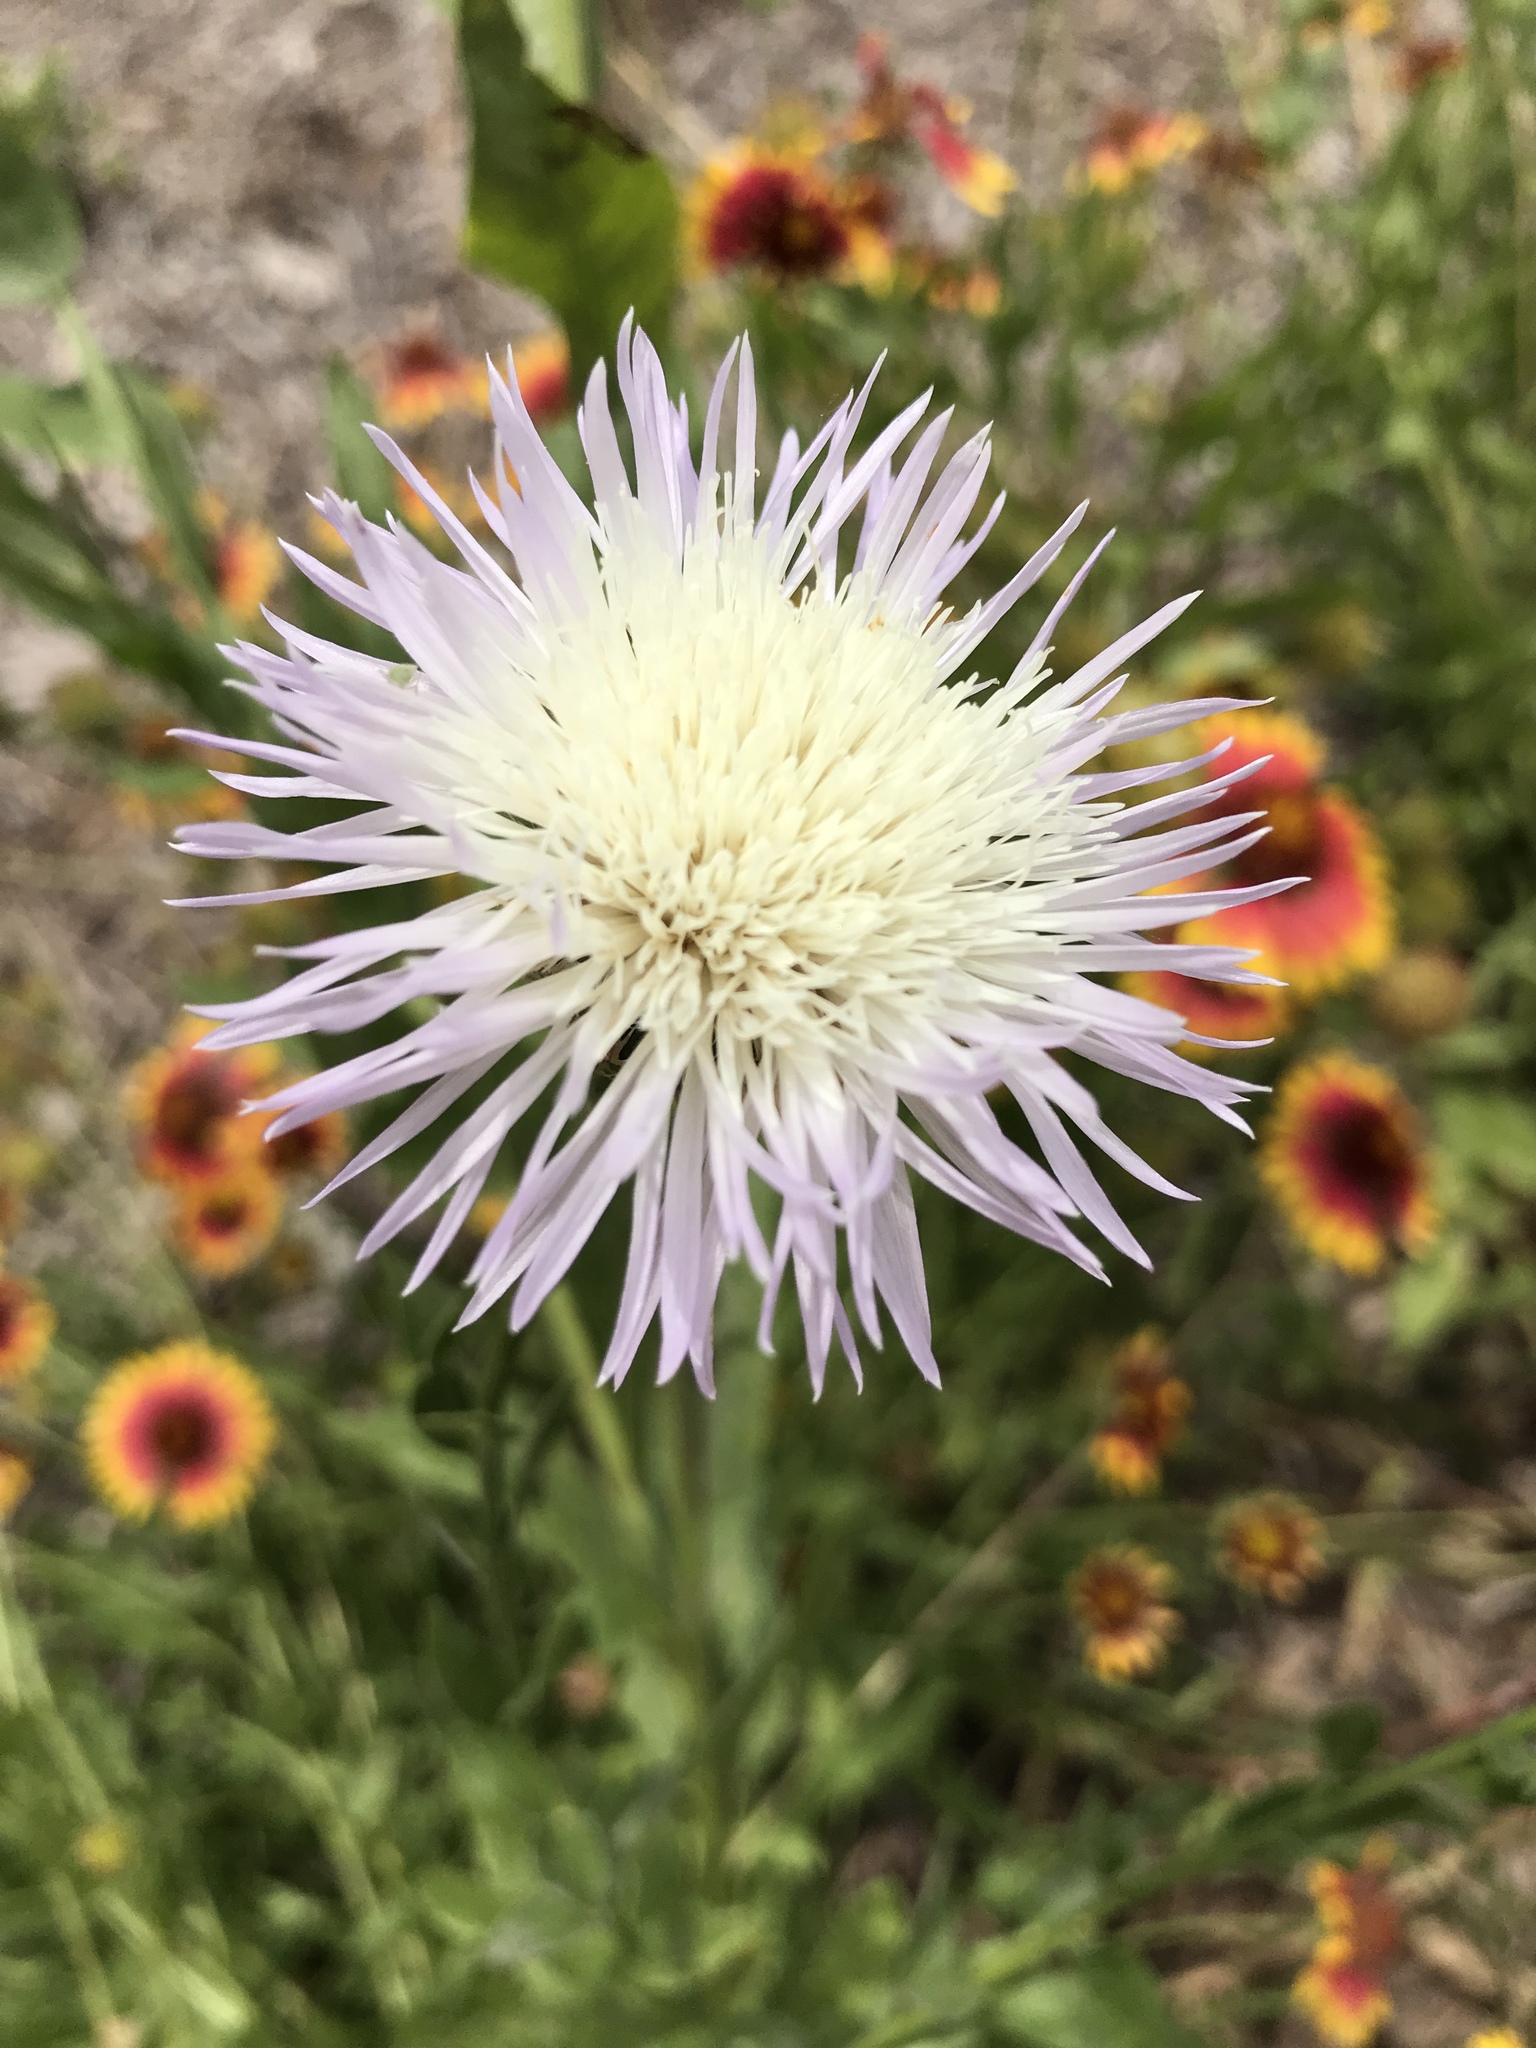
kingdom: Plantae
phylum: Tracheophyta
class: Magnoliopsida
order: Asterales
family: Asteraceae
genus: Plectocephalus
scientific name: Plectocephalus americanus
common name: American basket-flower
